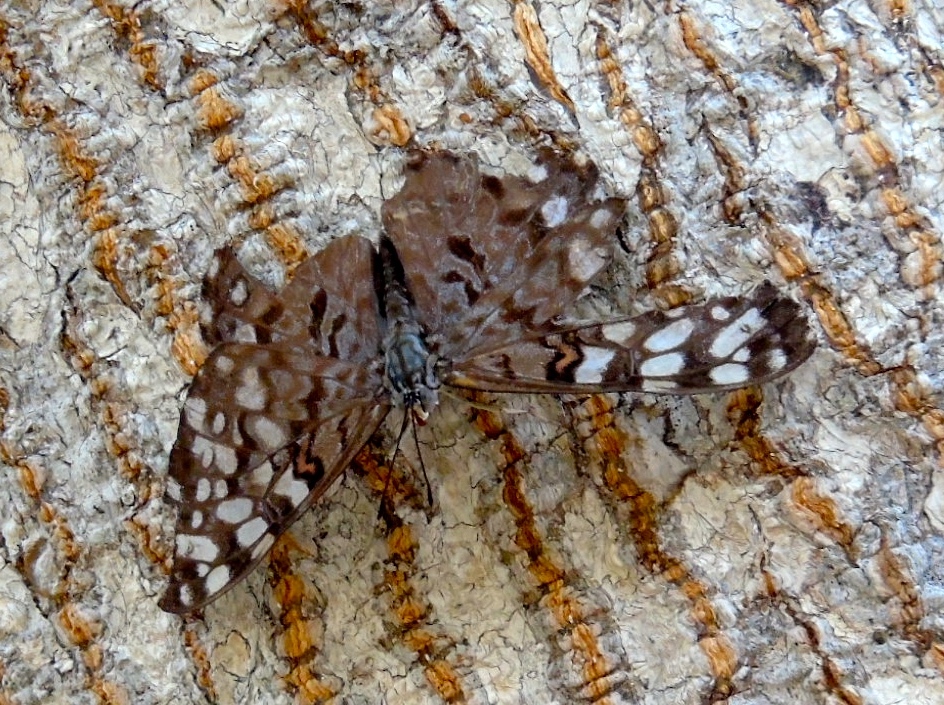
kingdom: Animalia
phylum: Arthropoda
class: Insecta
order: Lepidoptera
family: Nymphalidae
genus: Hamadryas
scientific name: Hamadryas guatemalena
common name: Guatemalan cracker
